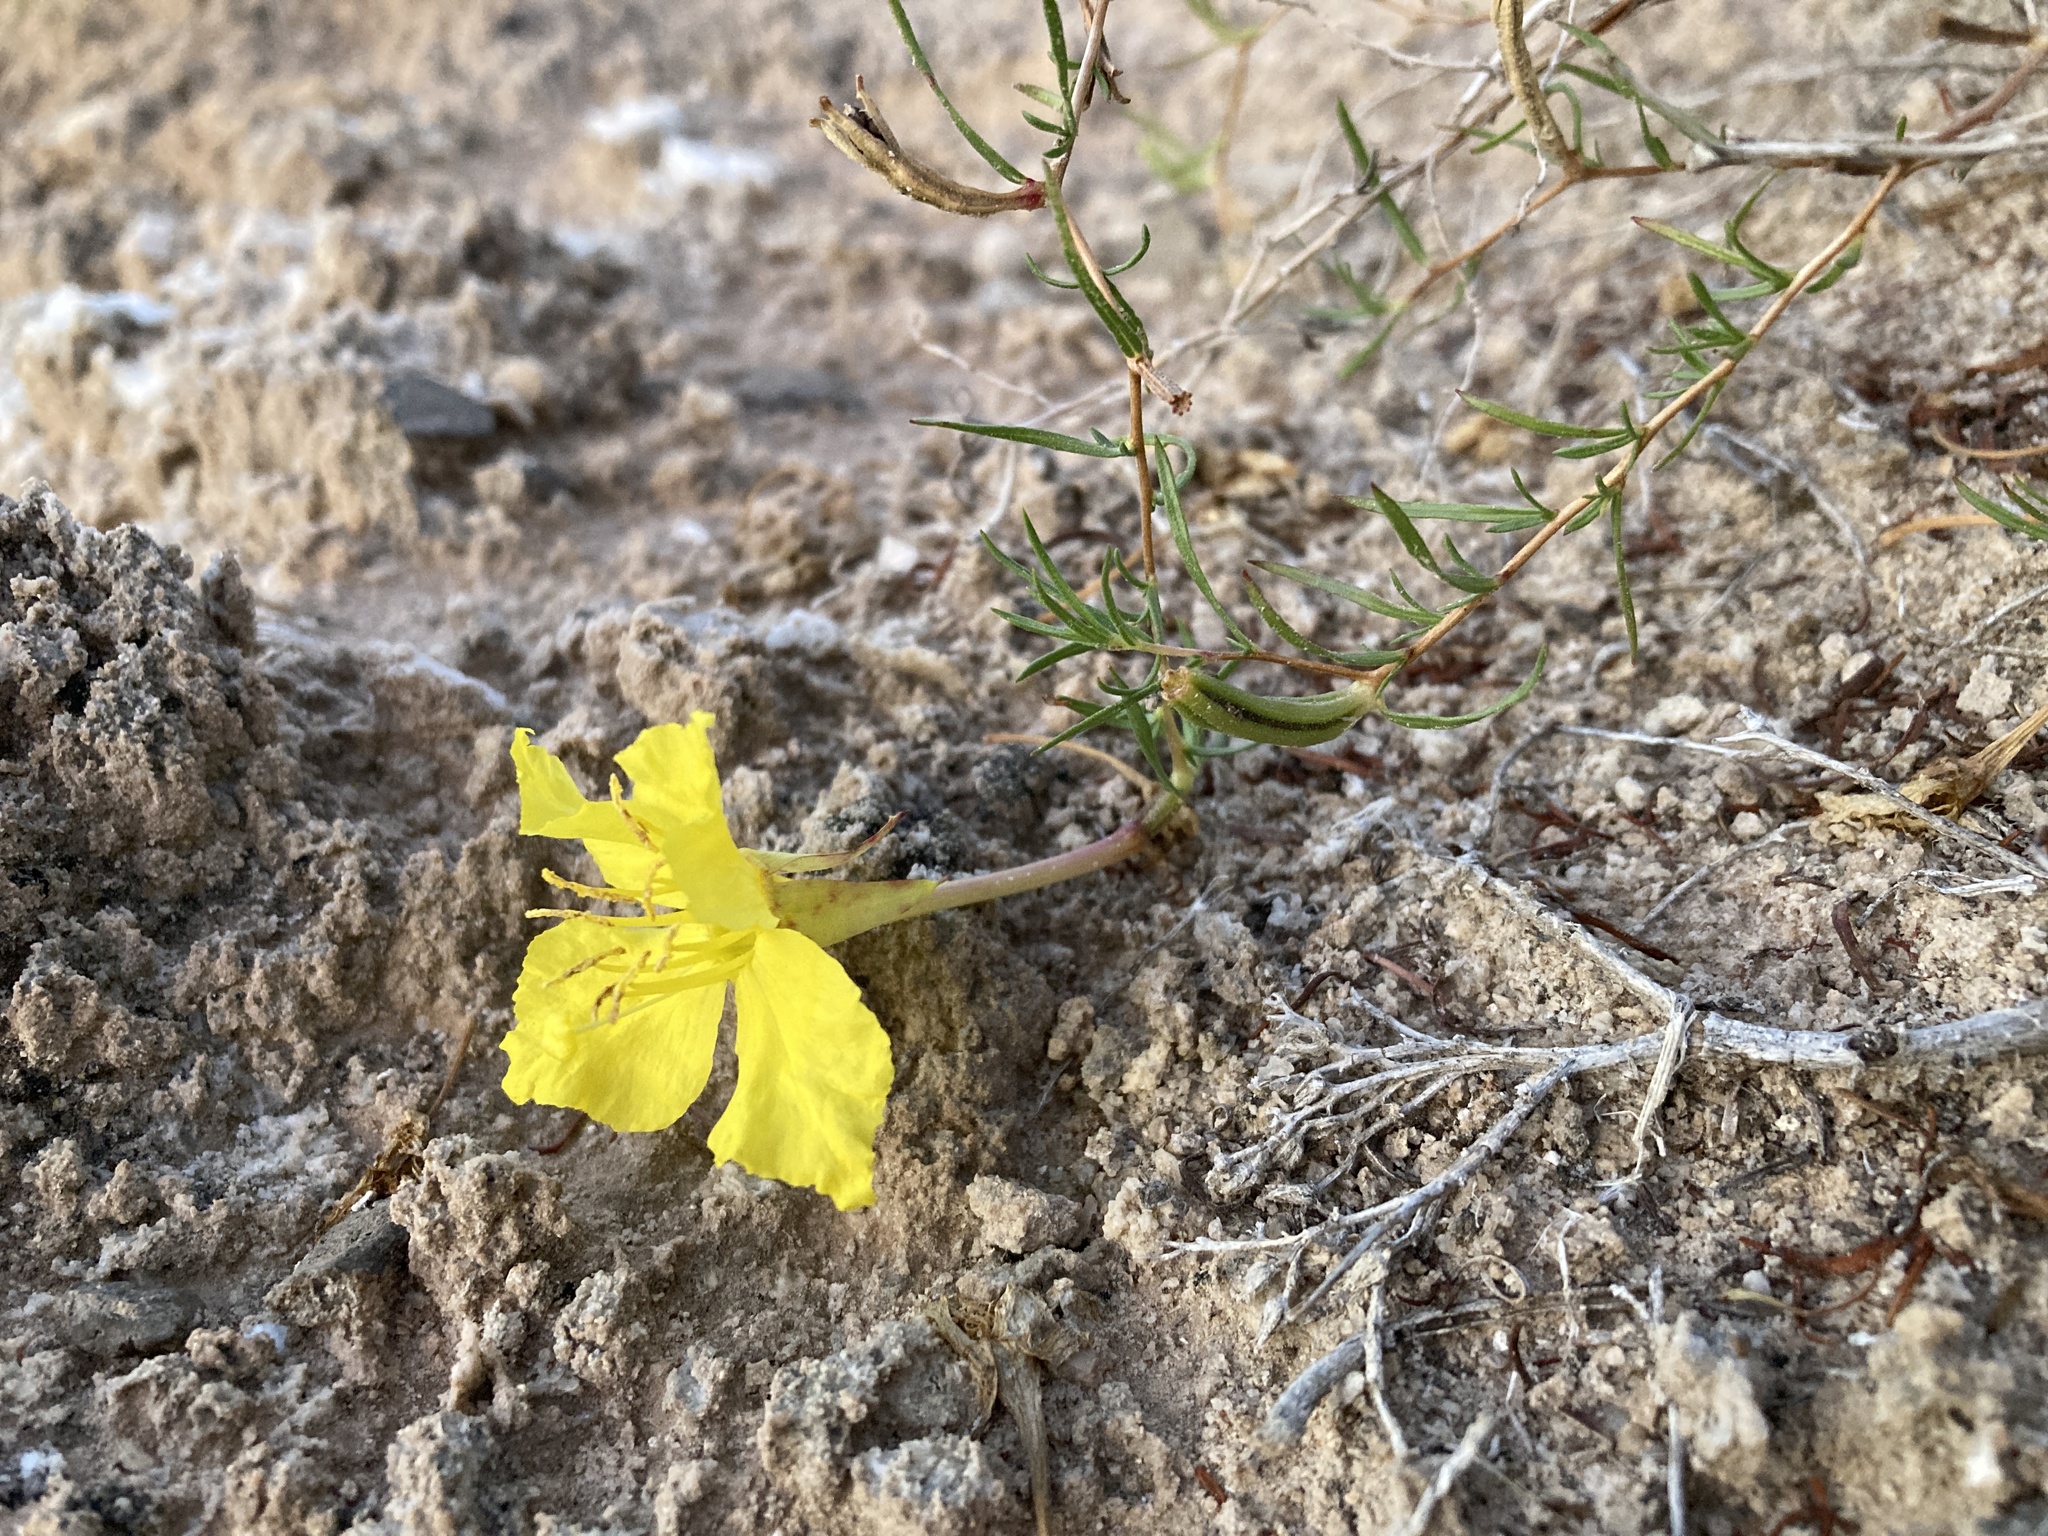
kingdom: Plantae
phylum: Tracheophyta
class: Magnoliopsida
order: Myrtales
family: Onagraceae
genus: Oenothera
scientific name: Oenothera hartwegii
